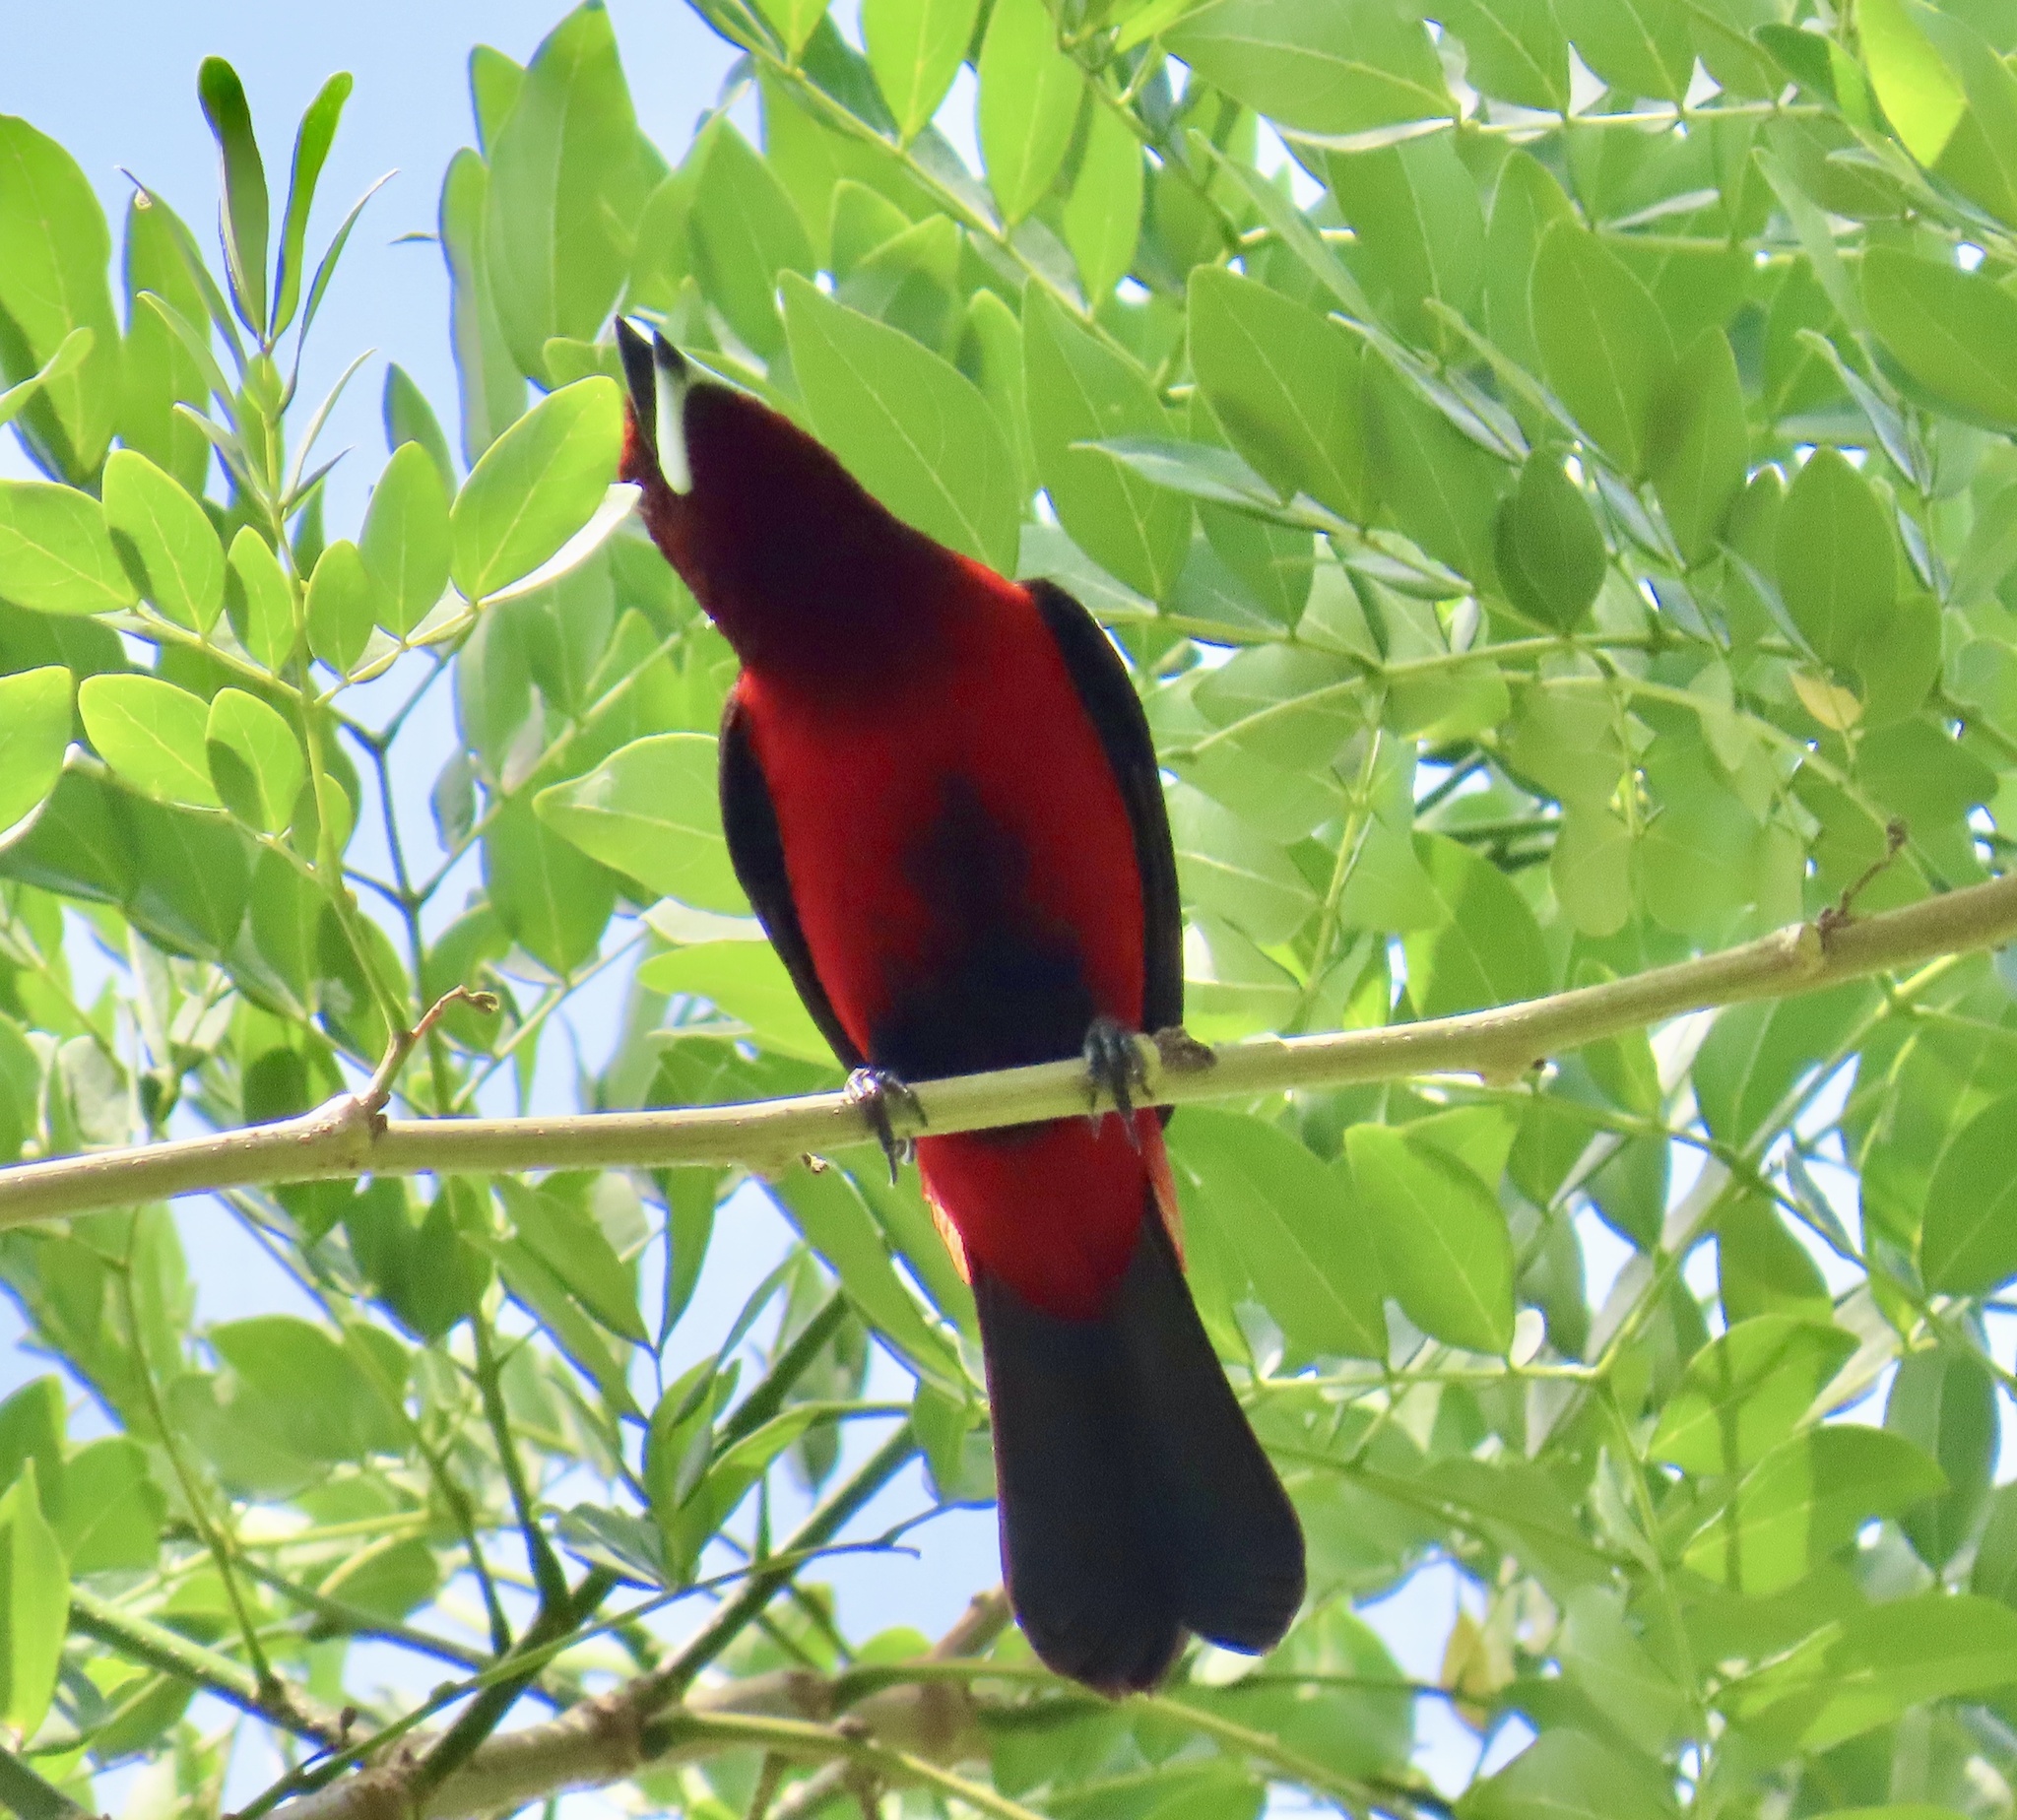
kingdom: Animalia
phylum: Chordata
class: Aves
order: Passeriformes
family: Thraupidae
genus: Ramphocelus
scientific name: Ramphocelus dimidiatus
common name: Crimson-backed tanager
